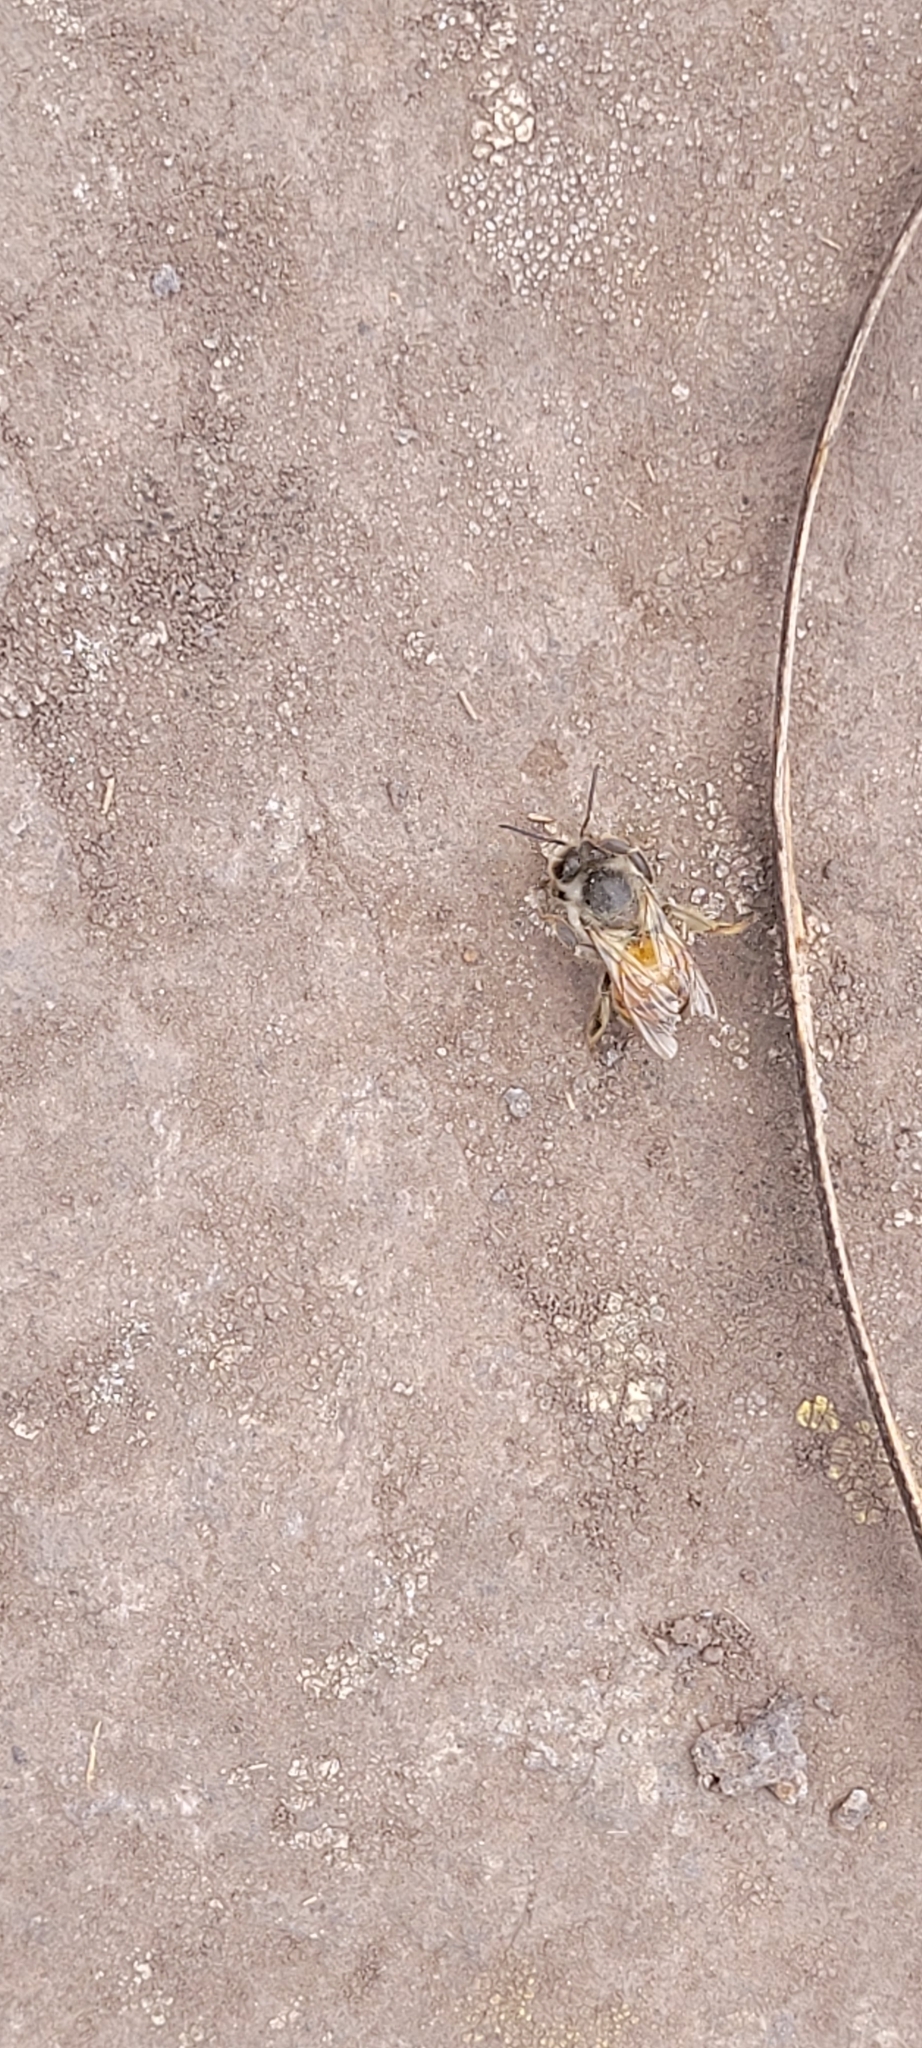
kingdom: Animalia
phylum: Arthropoda
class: Insecta
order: Hymenoptera
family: Apidae
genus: Apis
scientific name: Apis mellifera
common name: Honey bee
